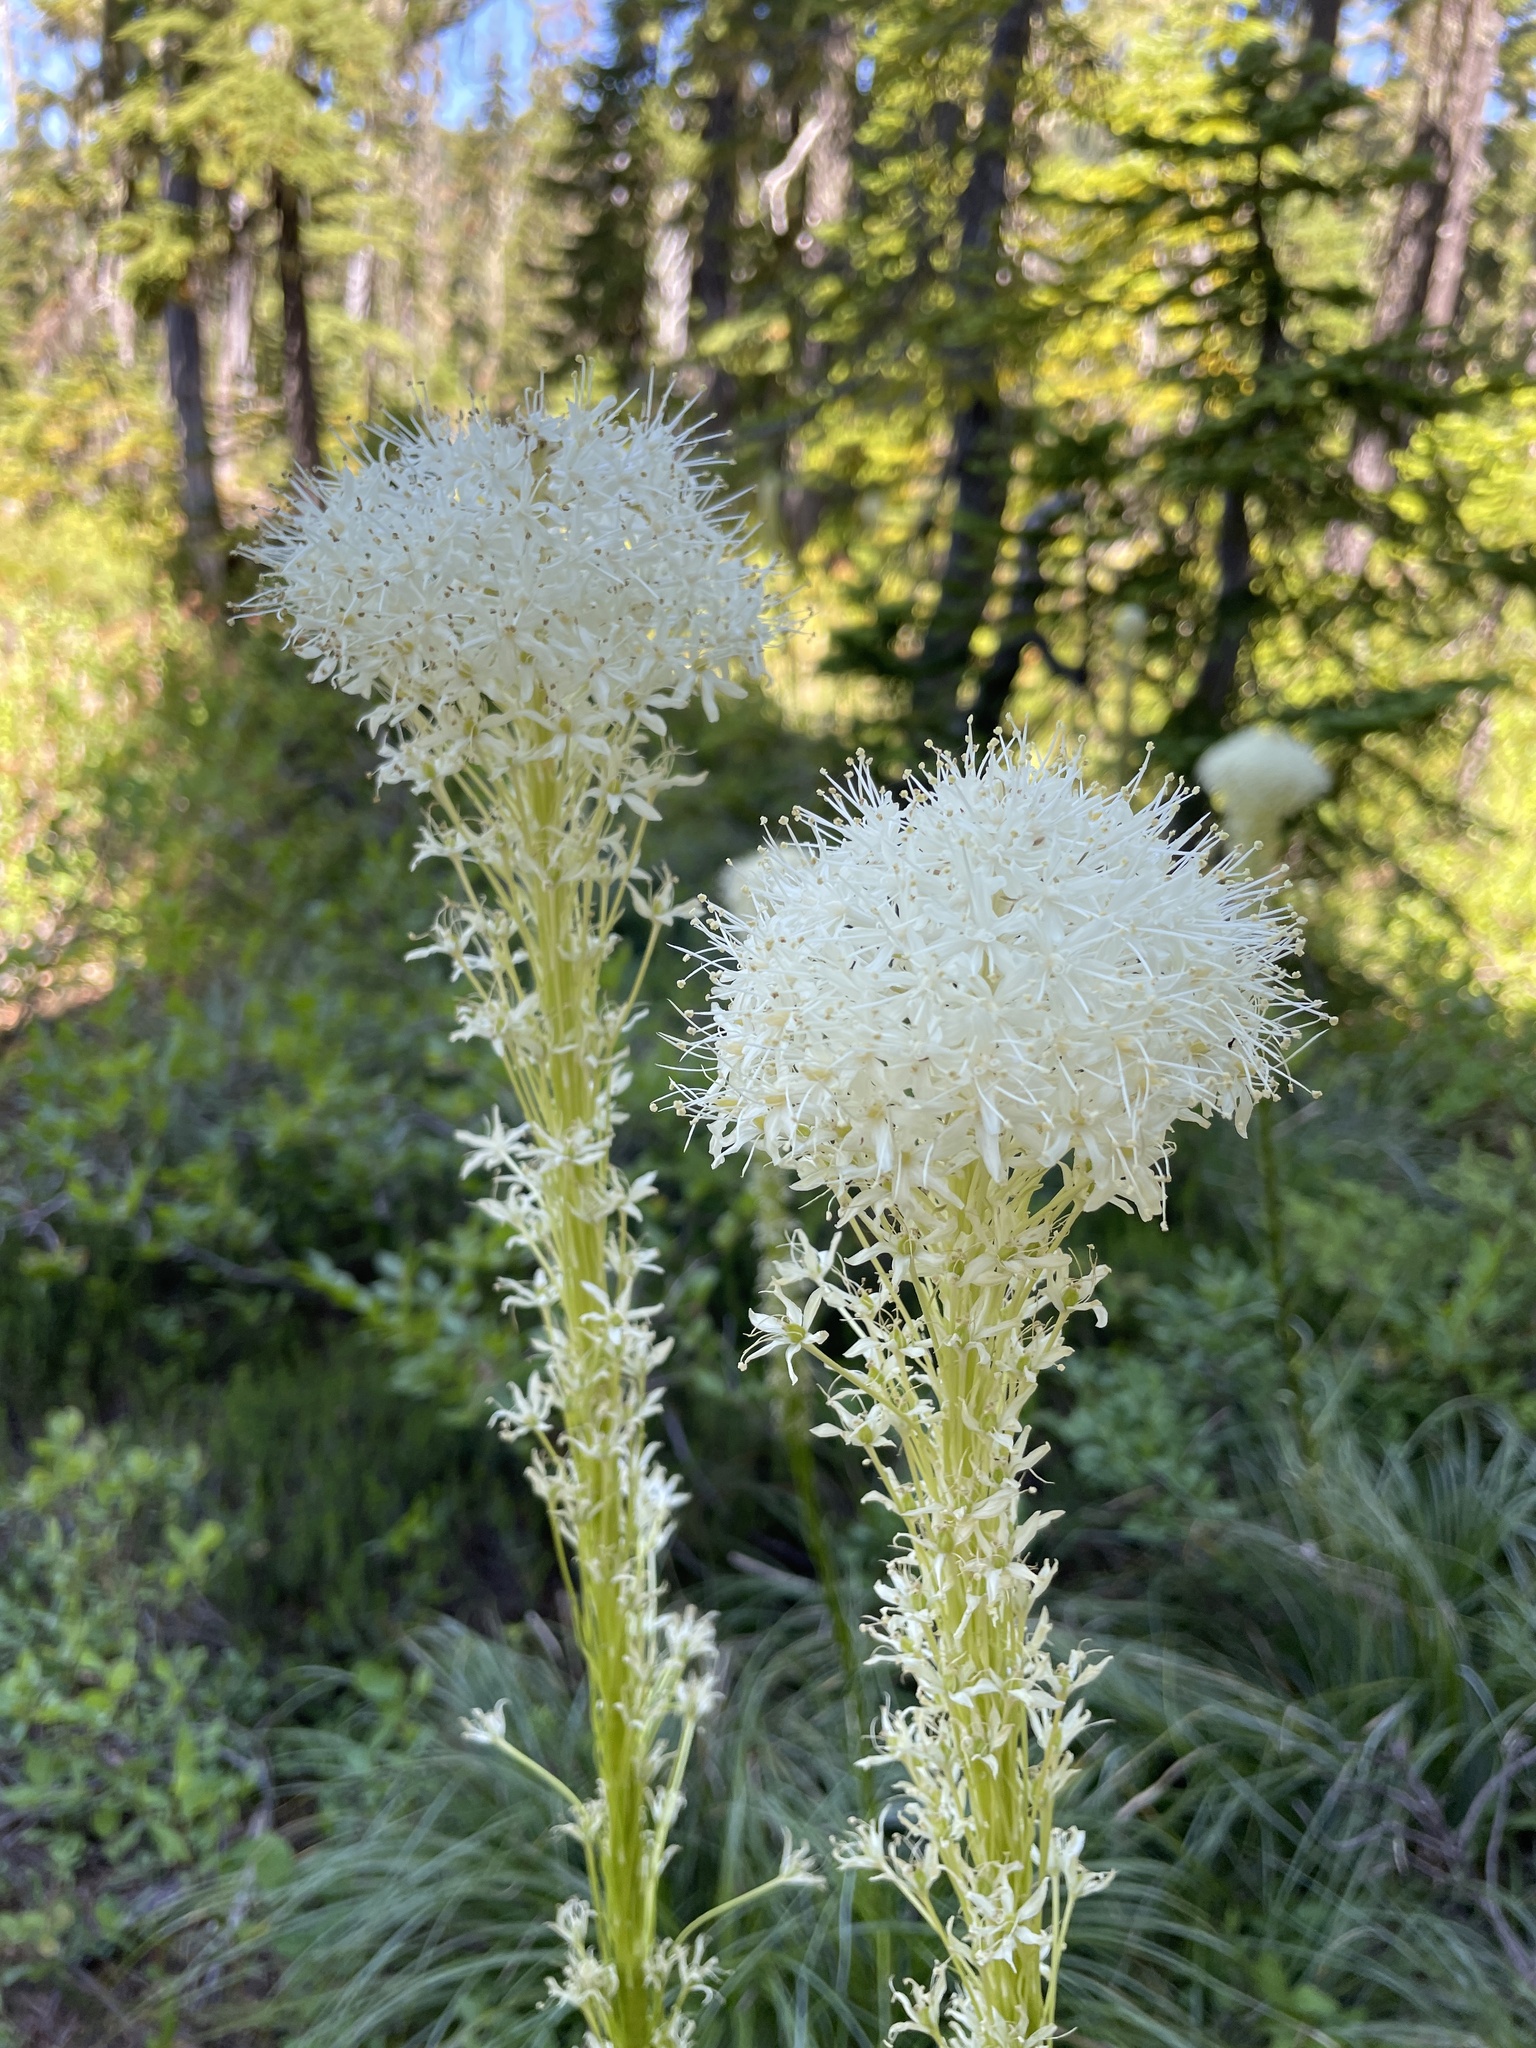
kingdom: Plantae
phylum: Tracheophyta
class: Liliopsida
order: Liliales
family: Melanthiaceae
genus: Xerophyllum
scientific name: Xerophyllum tenax
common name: Bear-grass
